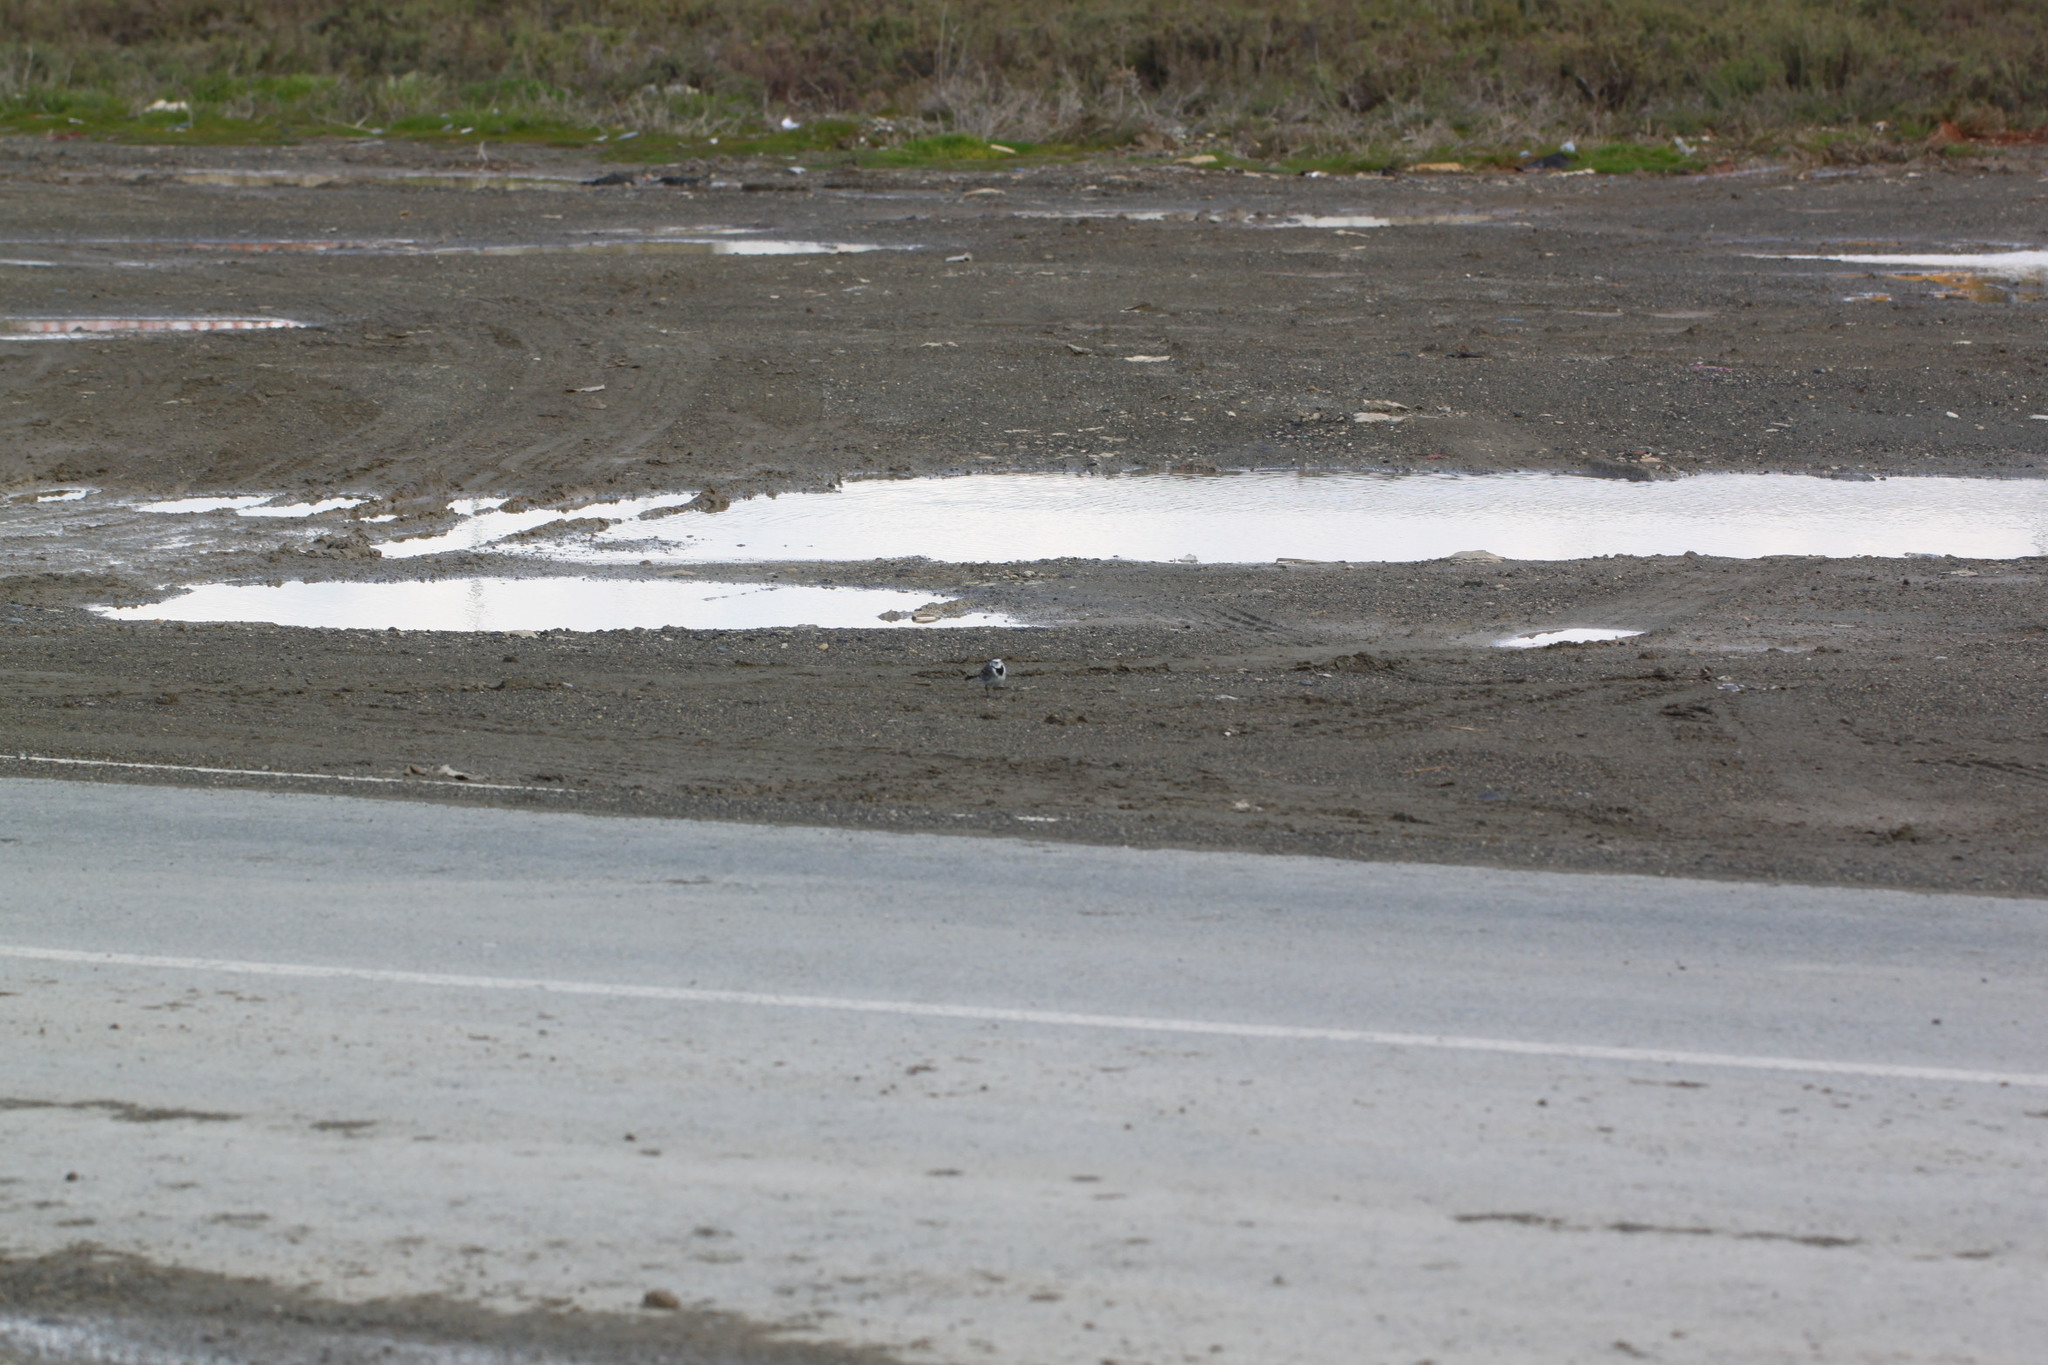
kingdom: Animalia
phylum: Chordata
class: Aves
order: Passeriformes
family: Motacillidae
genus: Motacilla
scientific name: Motacilla alba
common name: White wagtail
